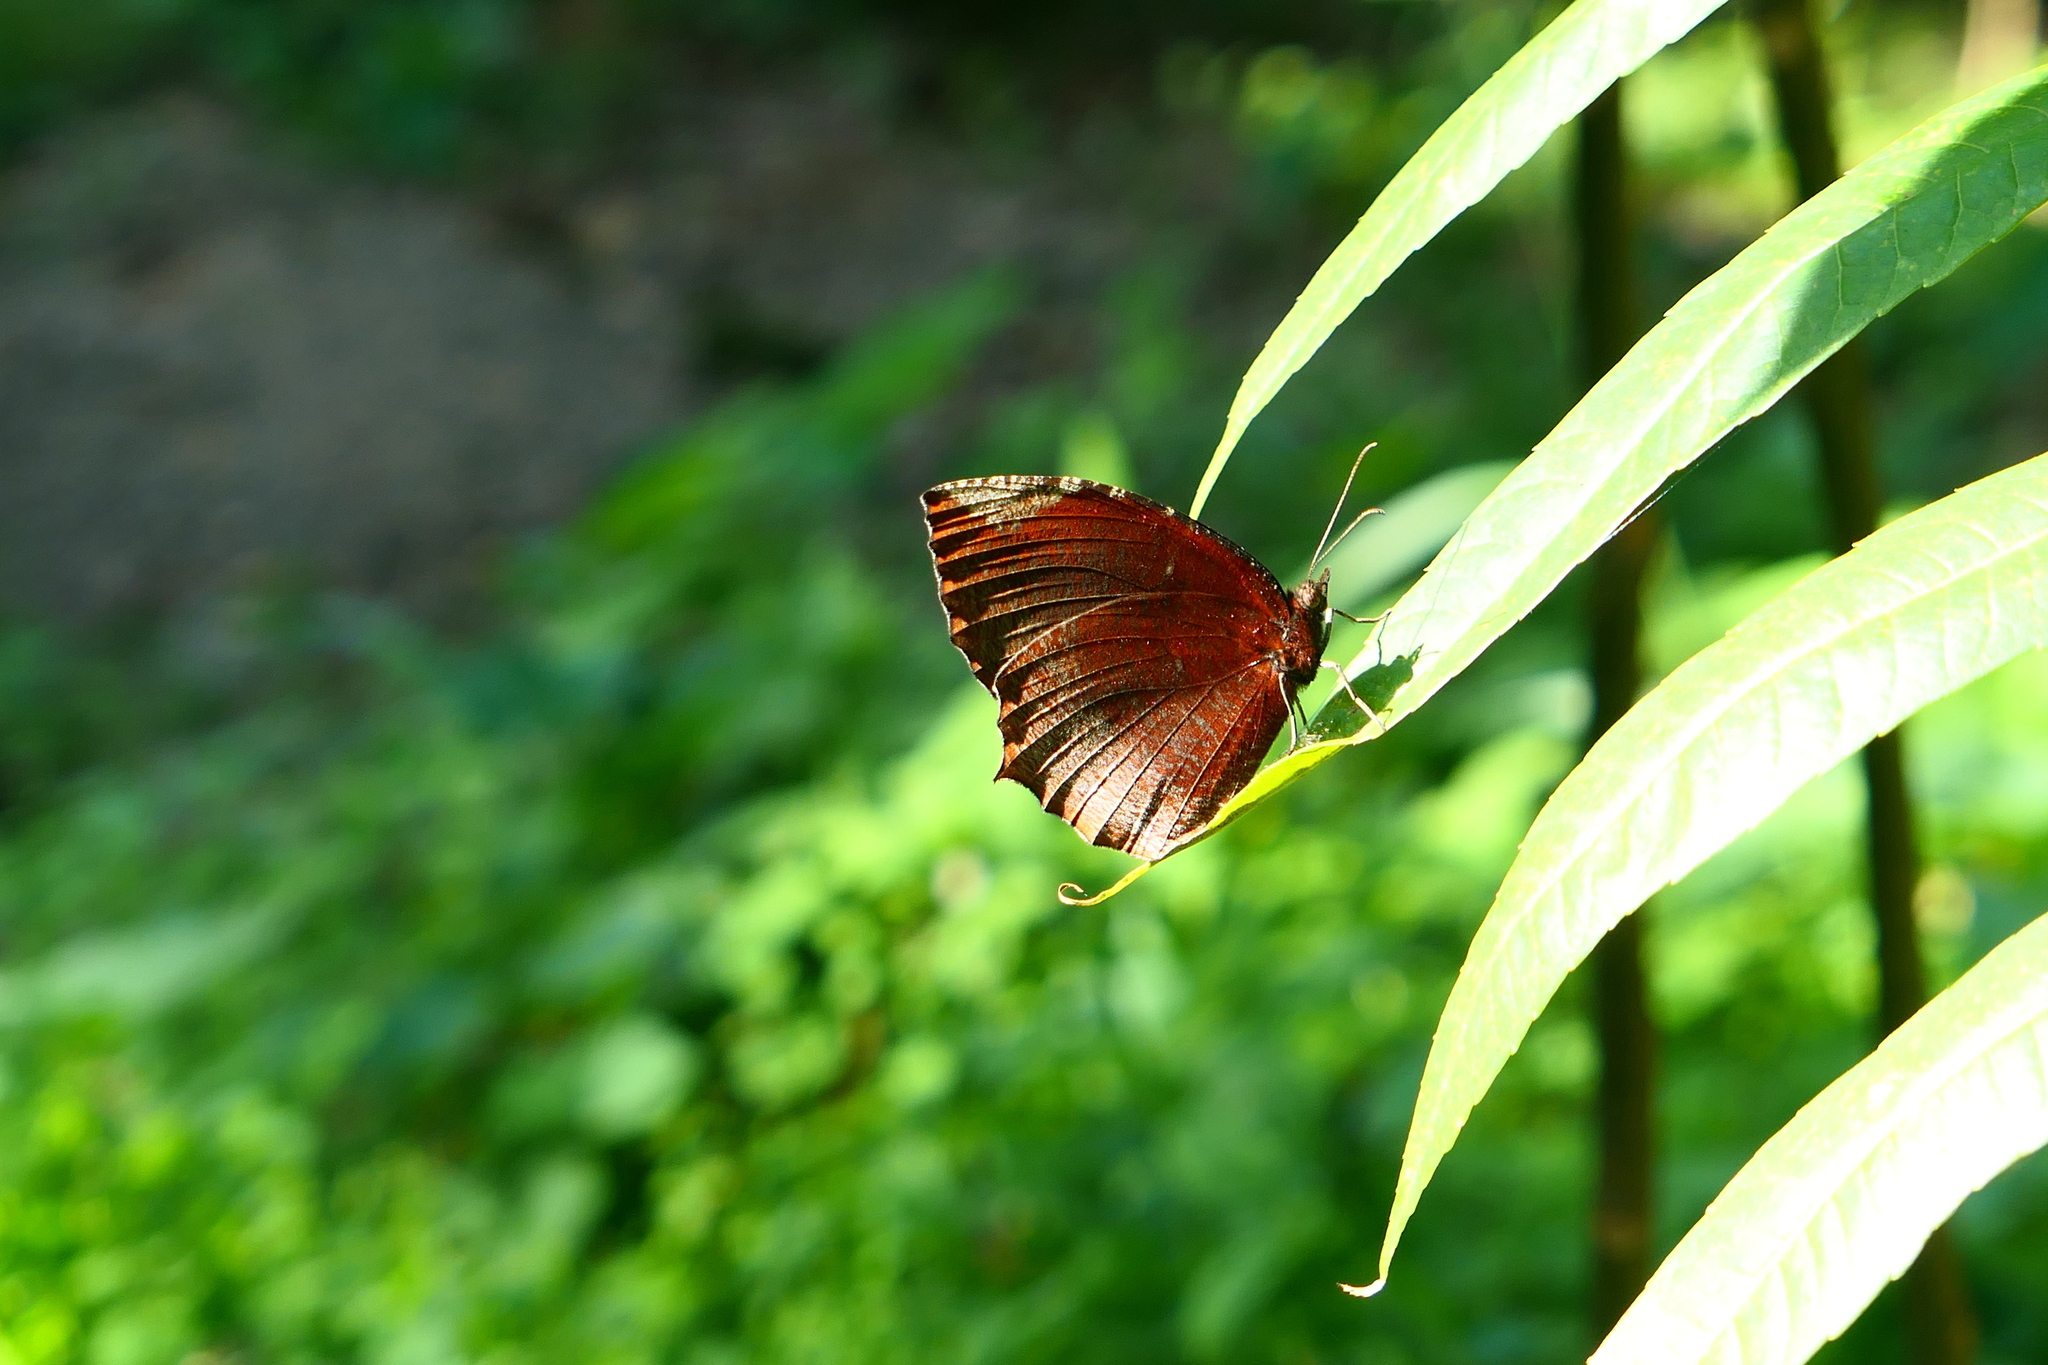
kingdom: Animalia
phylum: Arthropoda
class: Insecta
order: Lepidoptera
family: Nymphalidae
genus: Elymnias
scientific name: Elymnias hypermnestra
